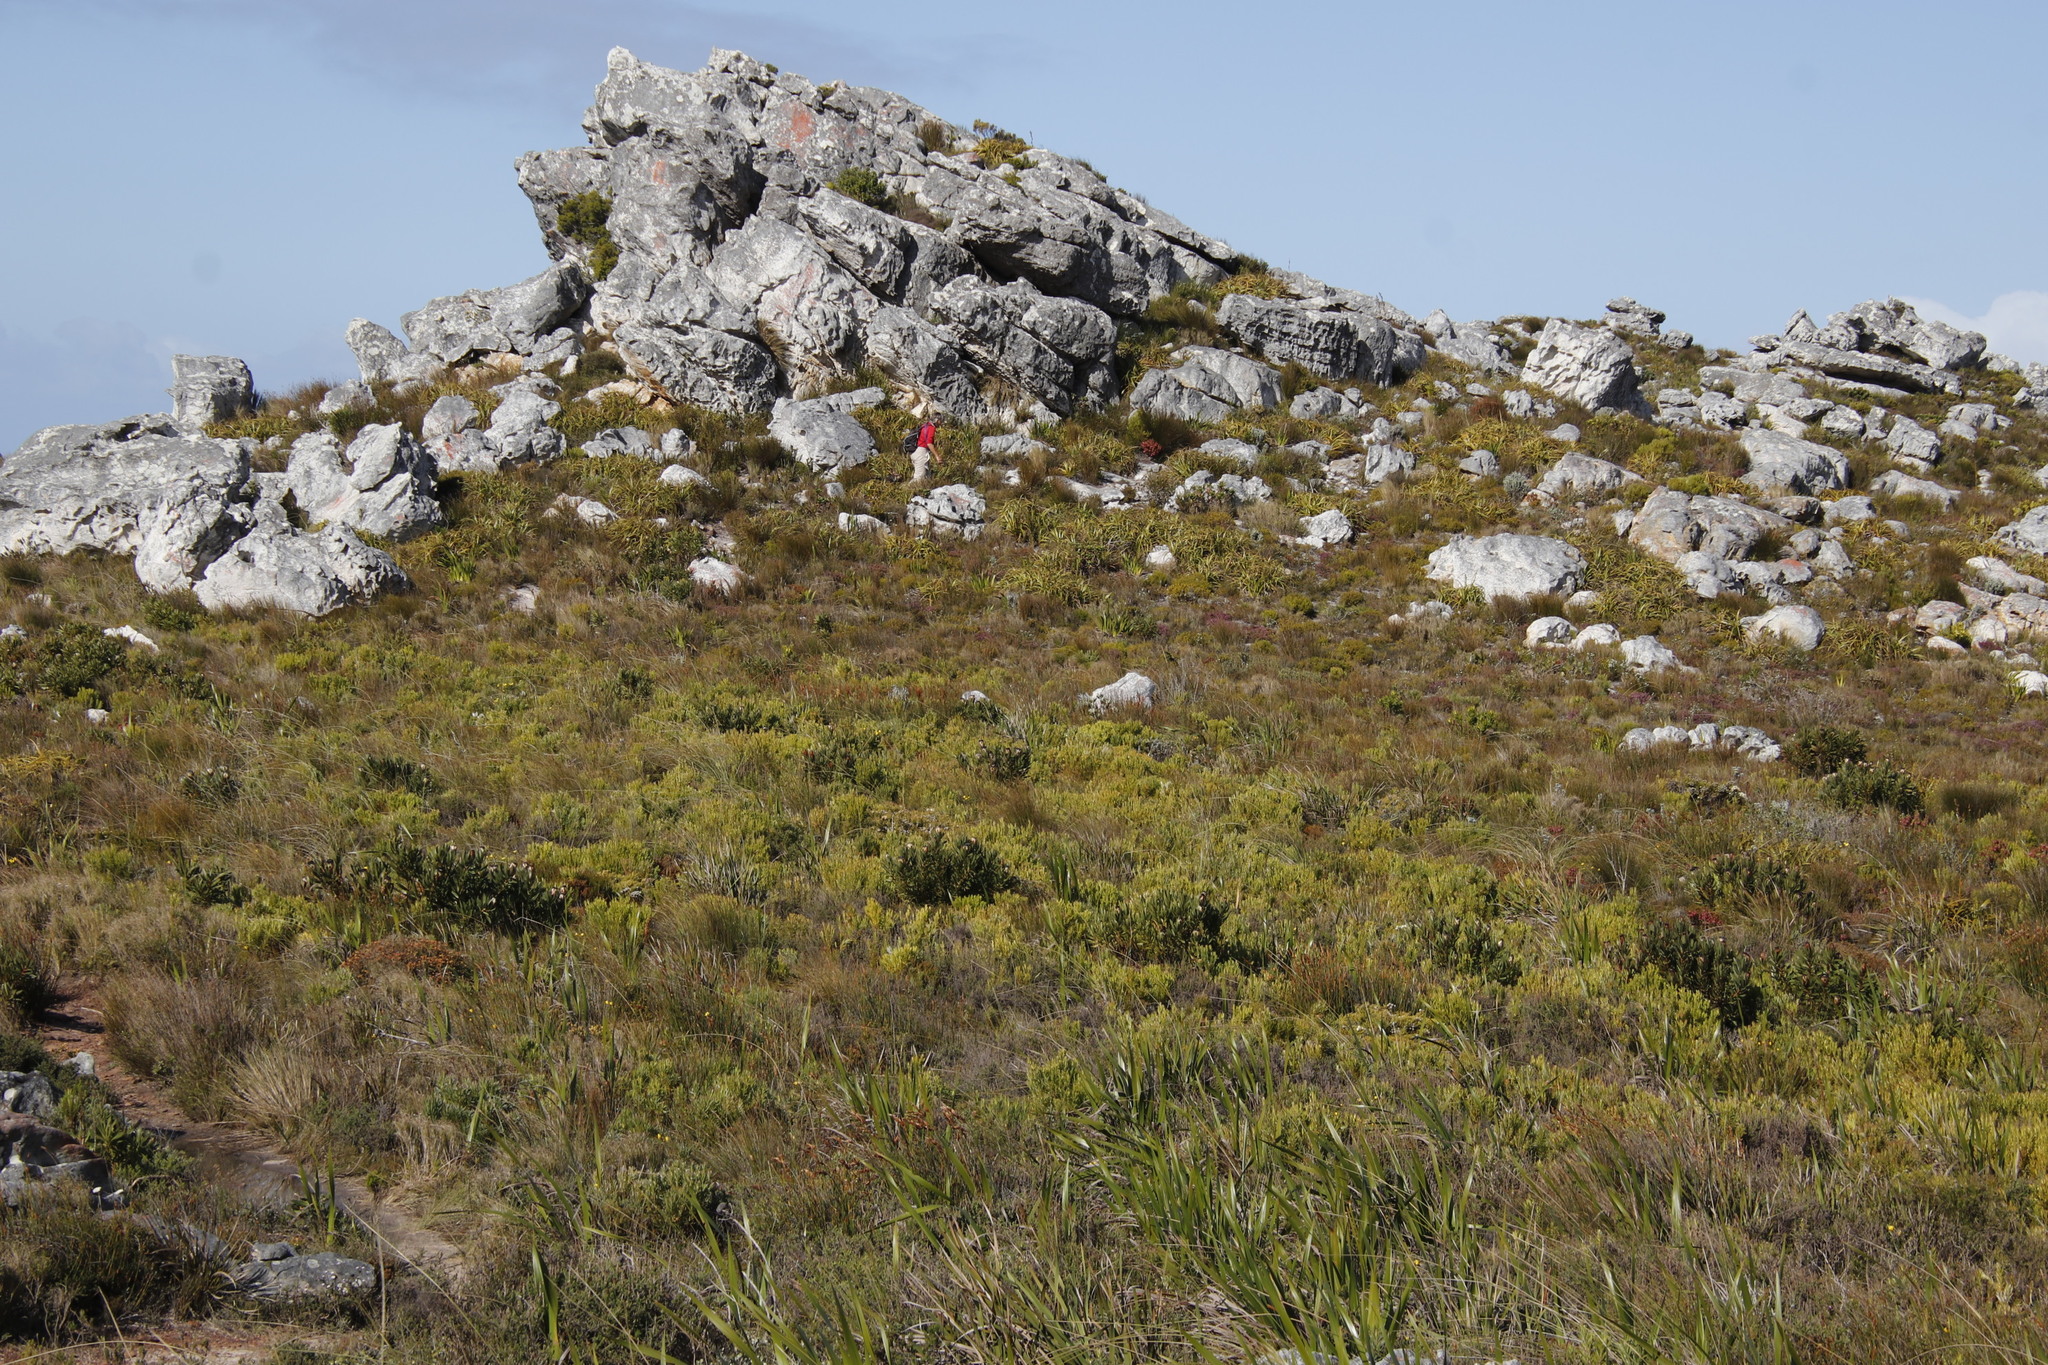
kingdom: Plantae
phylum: Tracheophyta
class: Magnoliopsida
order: Proteales
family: Proteaceae
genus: Leucadendron
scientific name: Leucadendron xanthoconus
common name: Sickle-leaf conebush
